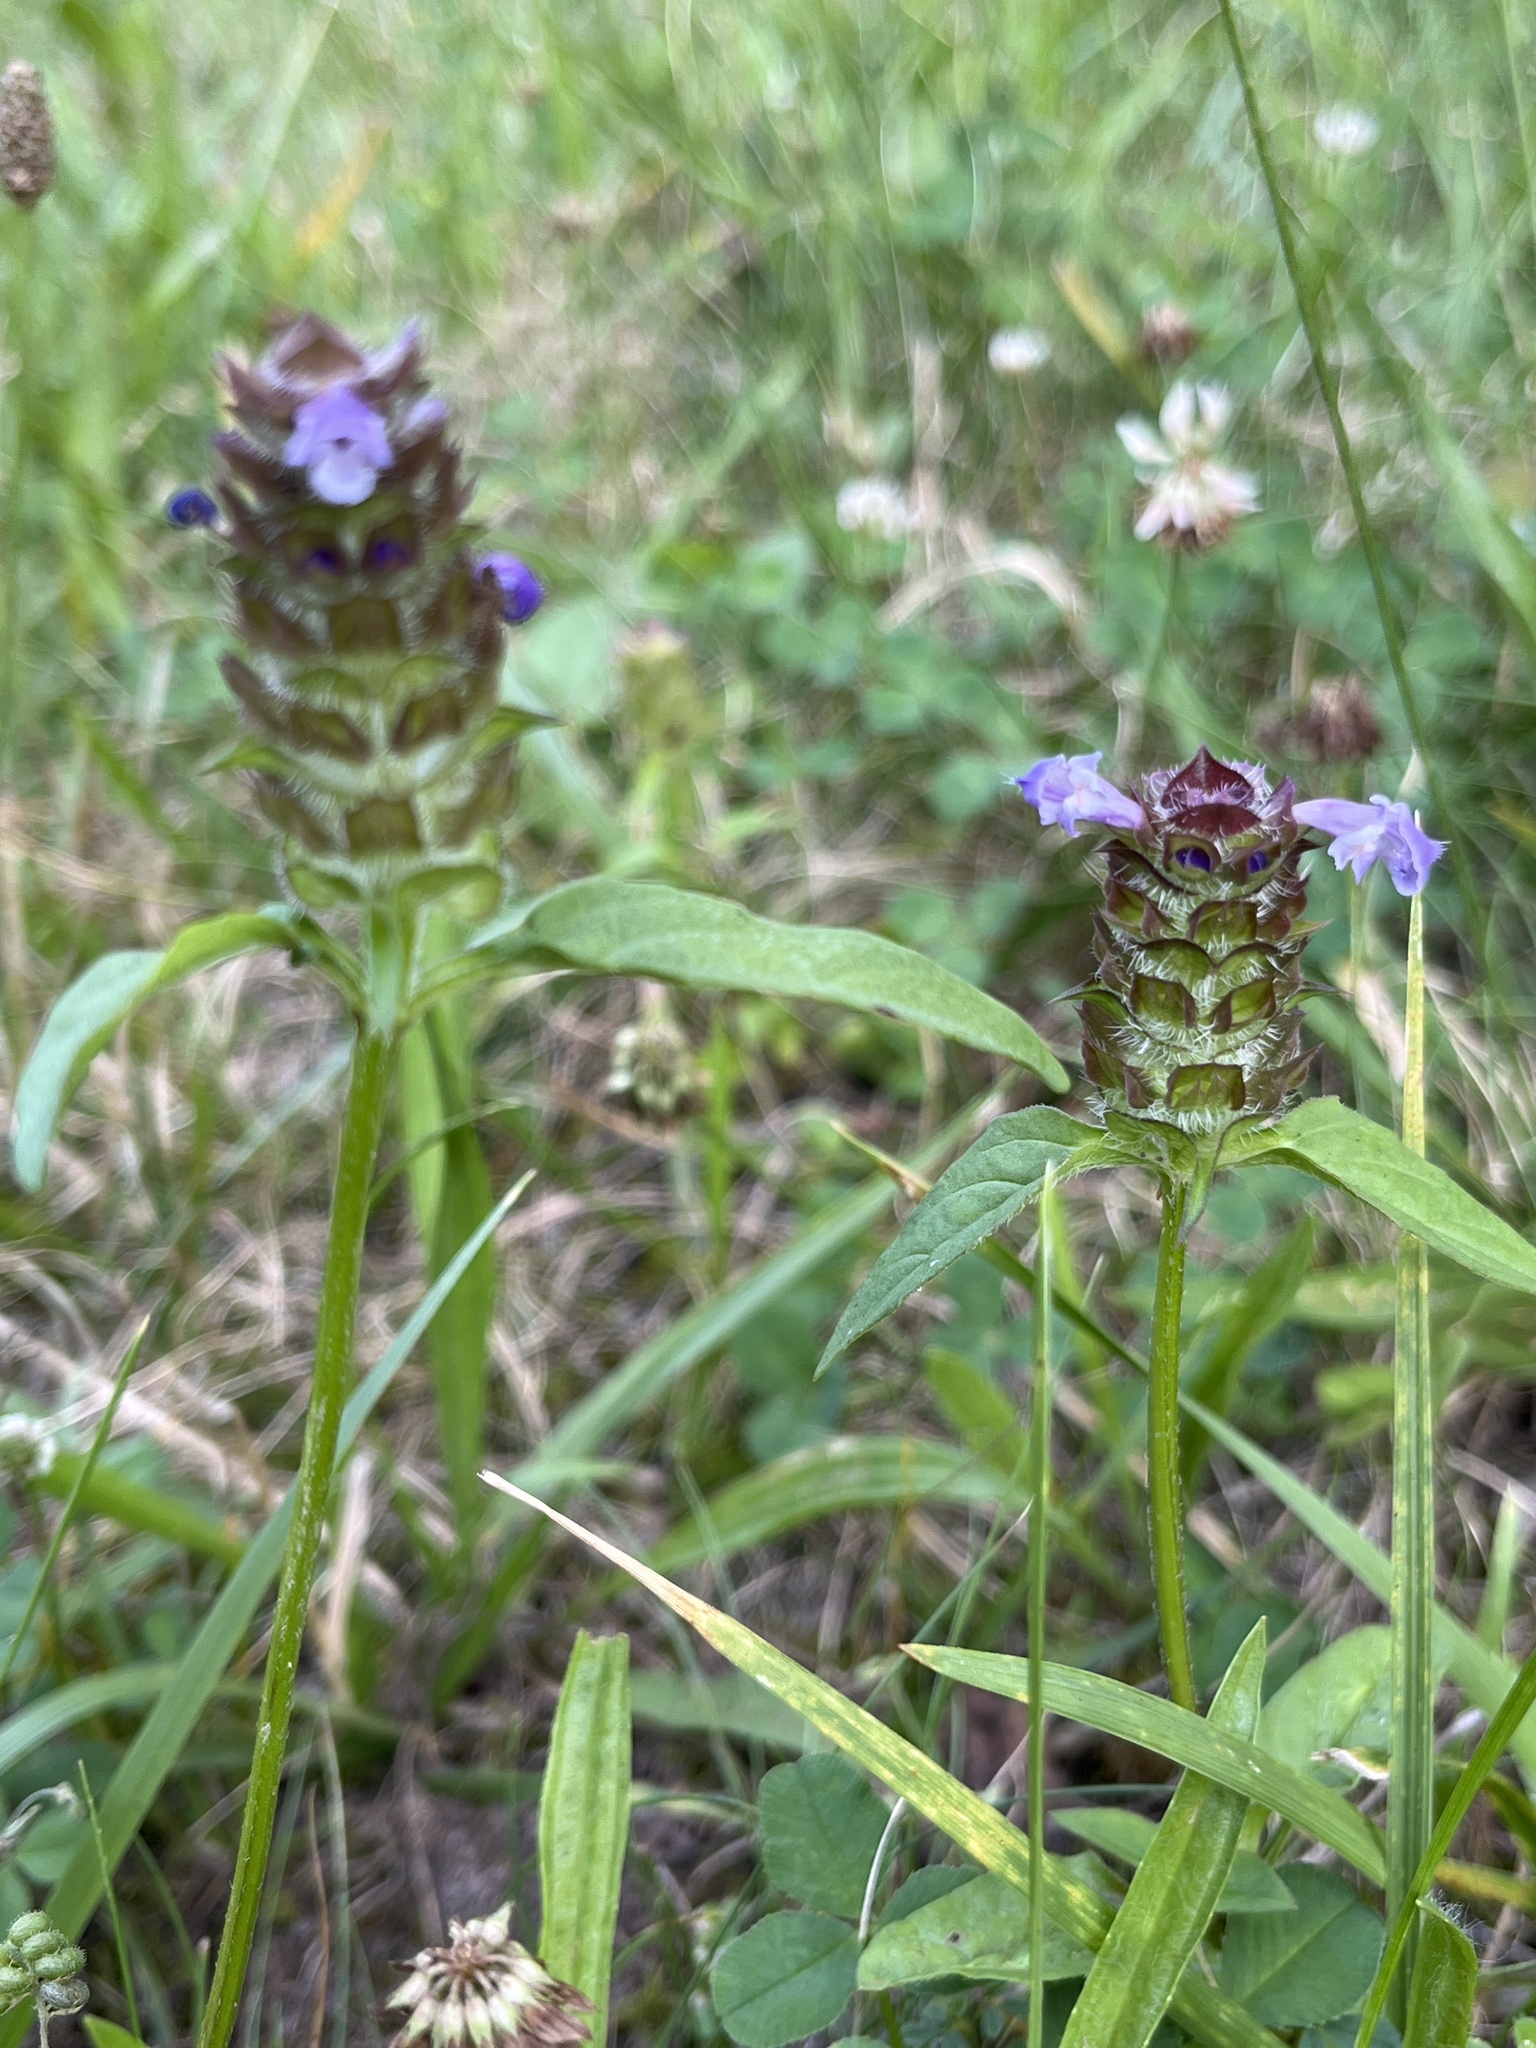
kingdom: Plantae
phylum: Tracheophyta
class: Magnoliopsida
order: Lamiales
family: Lamiaceae
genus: Prunella
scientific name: Prunella vulgaris
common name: Heal-all
